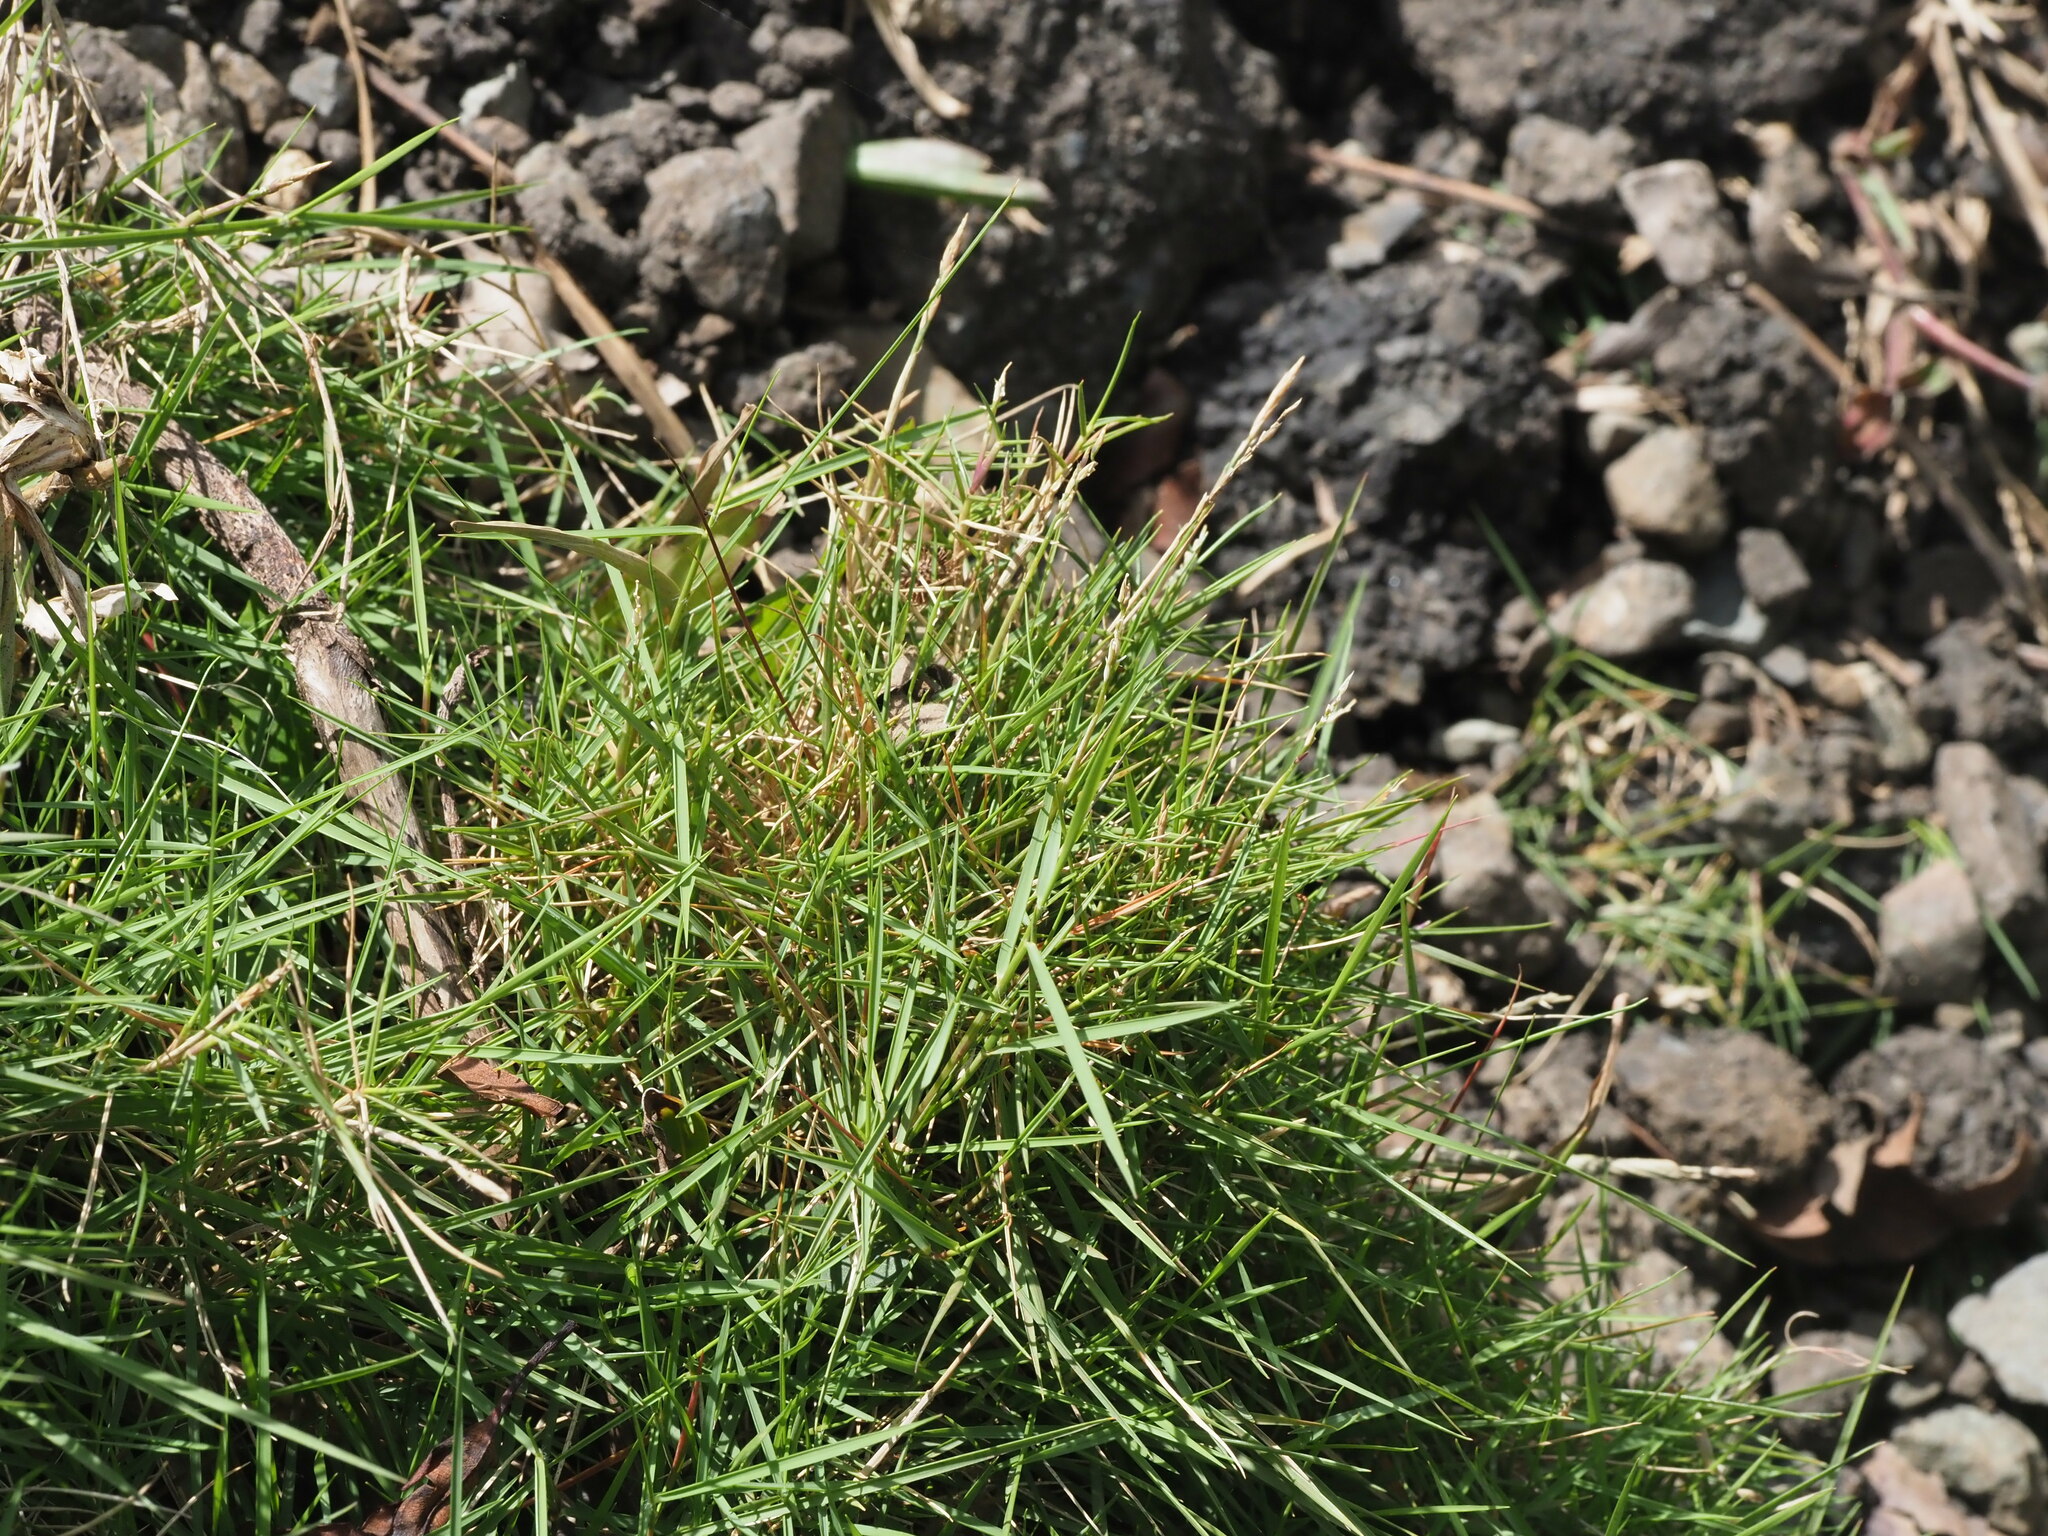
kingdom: Plantae
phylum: Tracheophyta
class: Liliopsida
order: Poales
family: Poaceae
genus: Zoysia
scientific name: Zoysia matrella
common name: Manila grass
